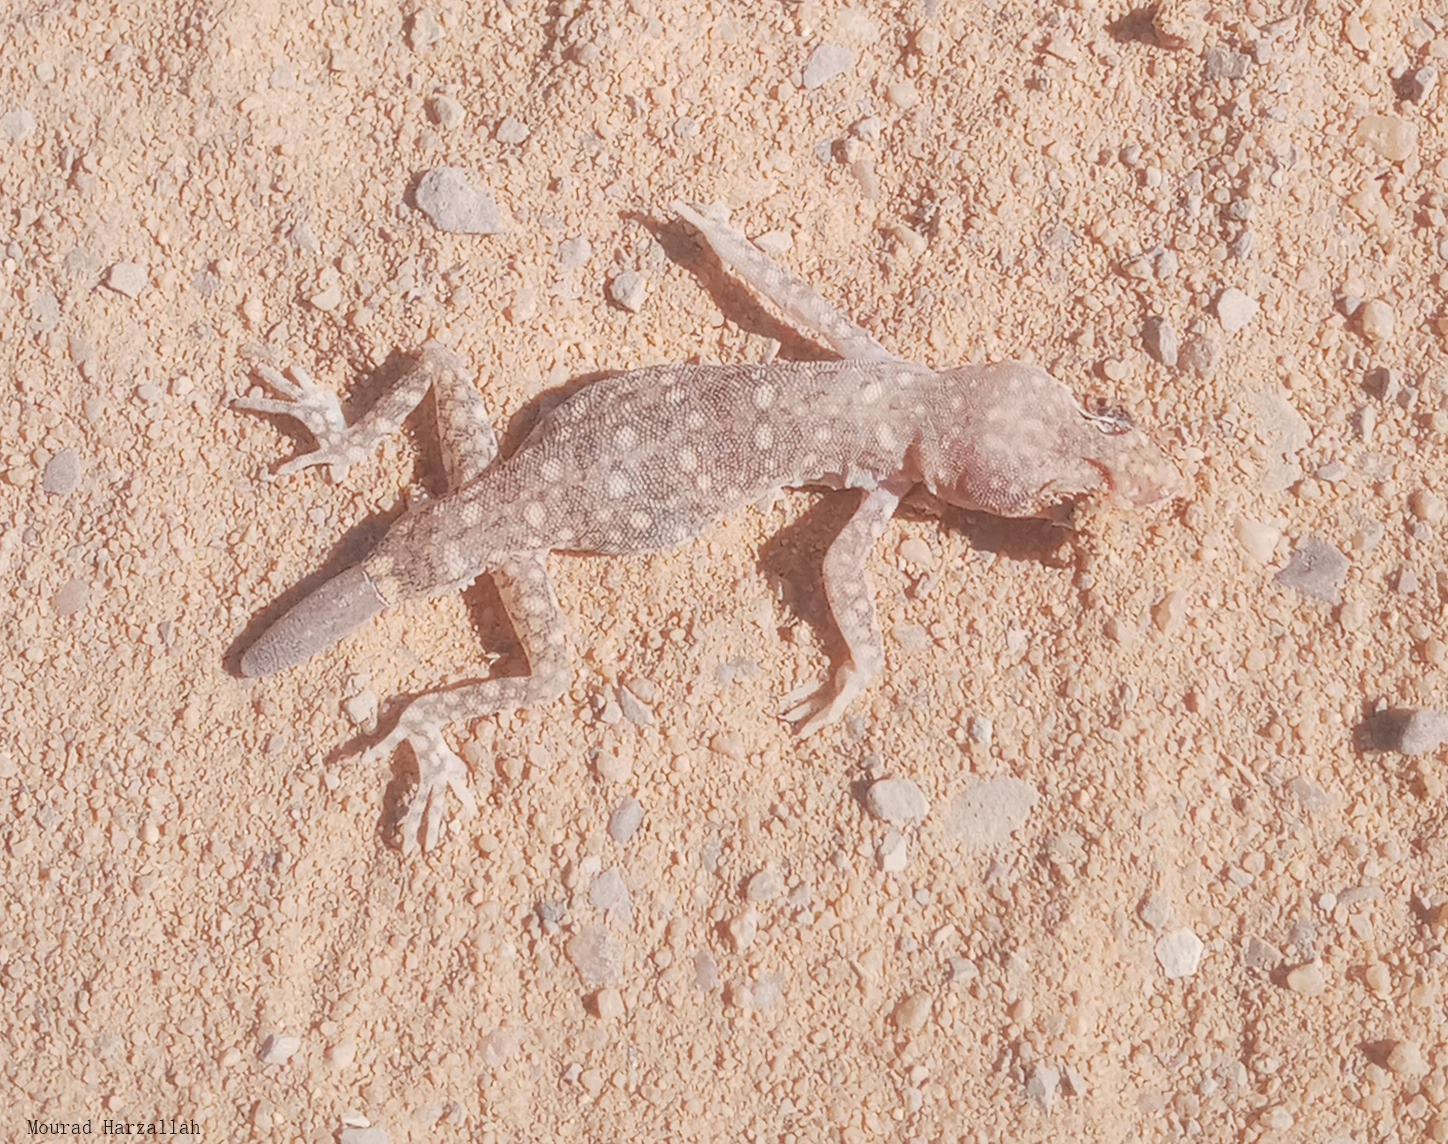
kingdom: Animalia
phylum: Chordata
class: Squamata
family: Gekkonidae
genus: Stenodactylus
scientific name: Stenodactylus sthenodactylus
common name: Elegant gecko
